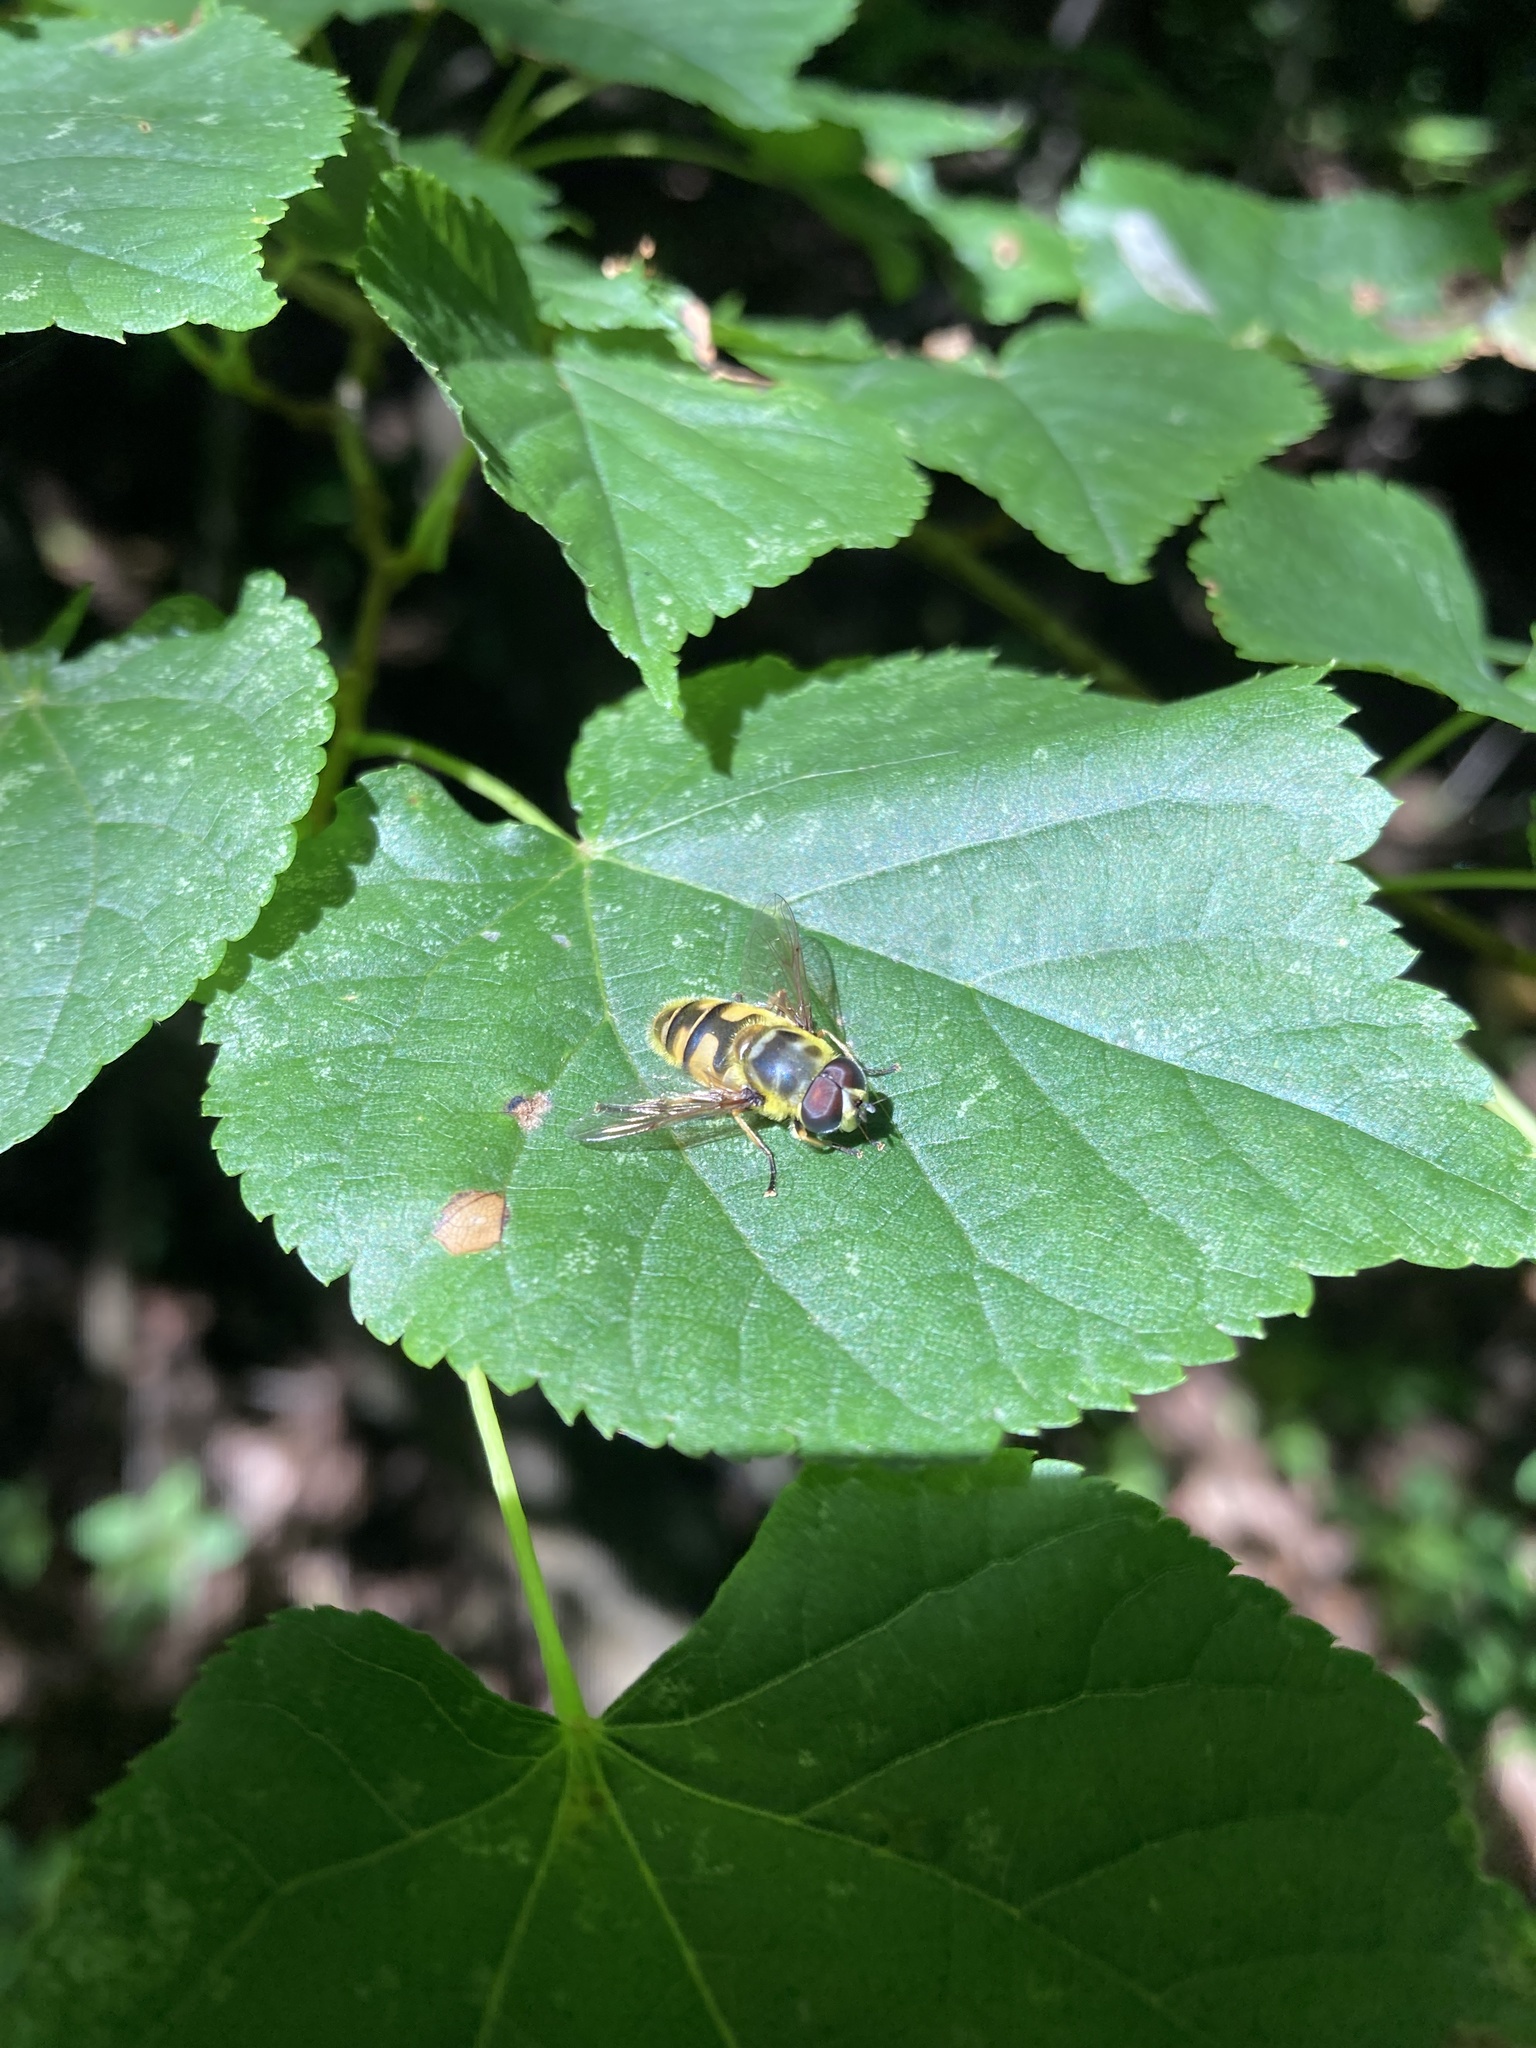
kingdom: Animalia
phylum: Arthropoda
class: Insecta
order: Diptera
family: Syrphidae
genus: Myathropa
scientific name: Myathropa florea
